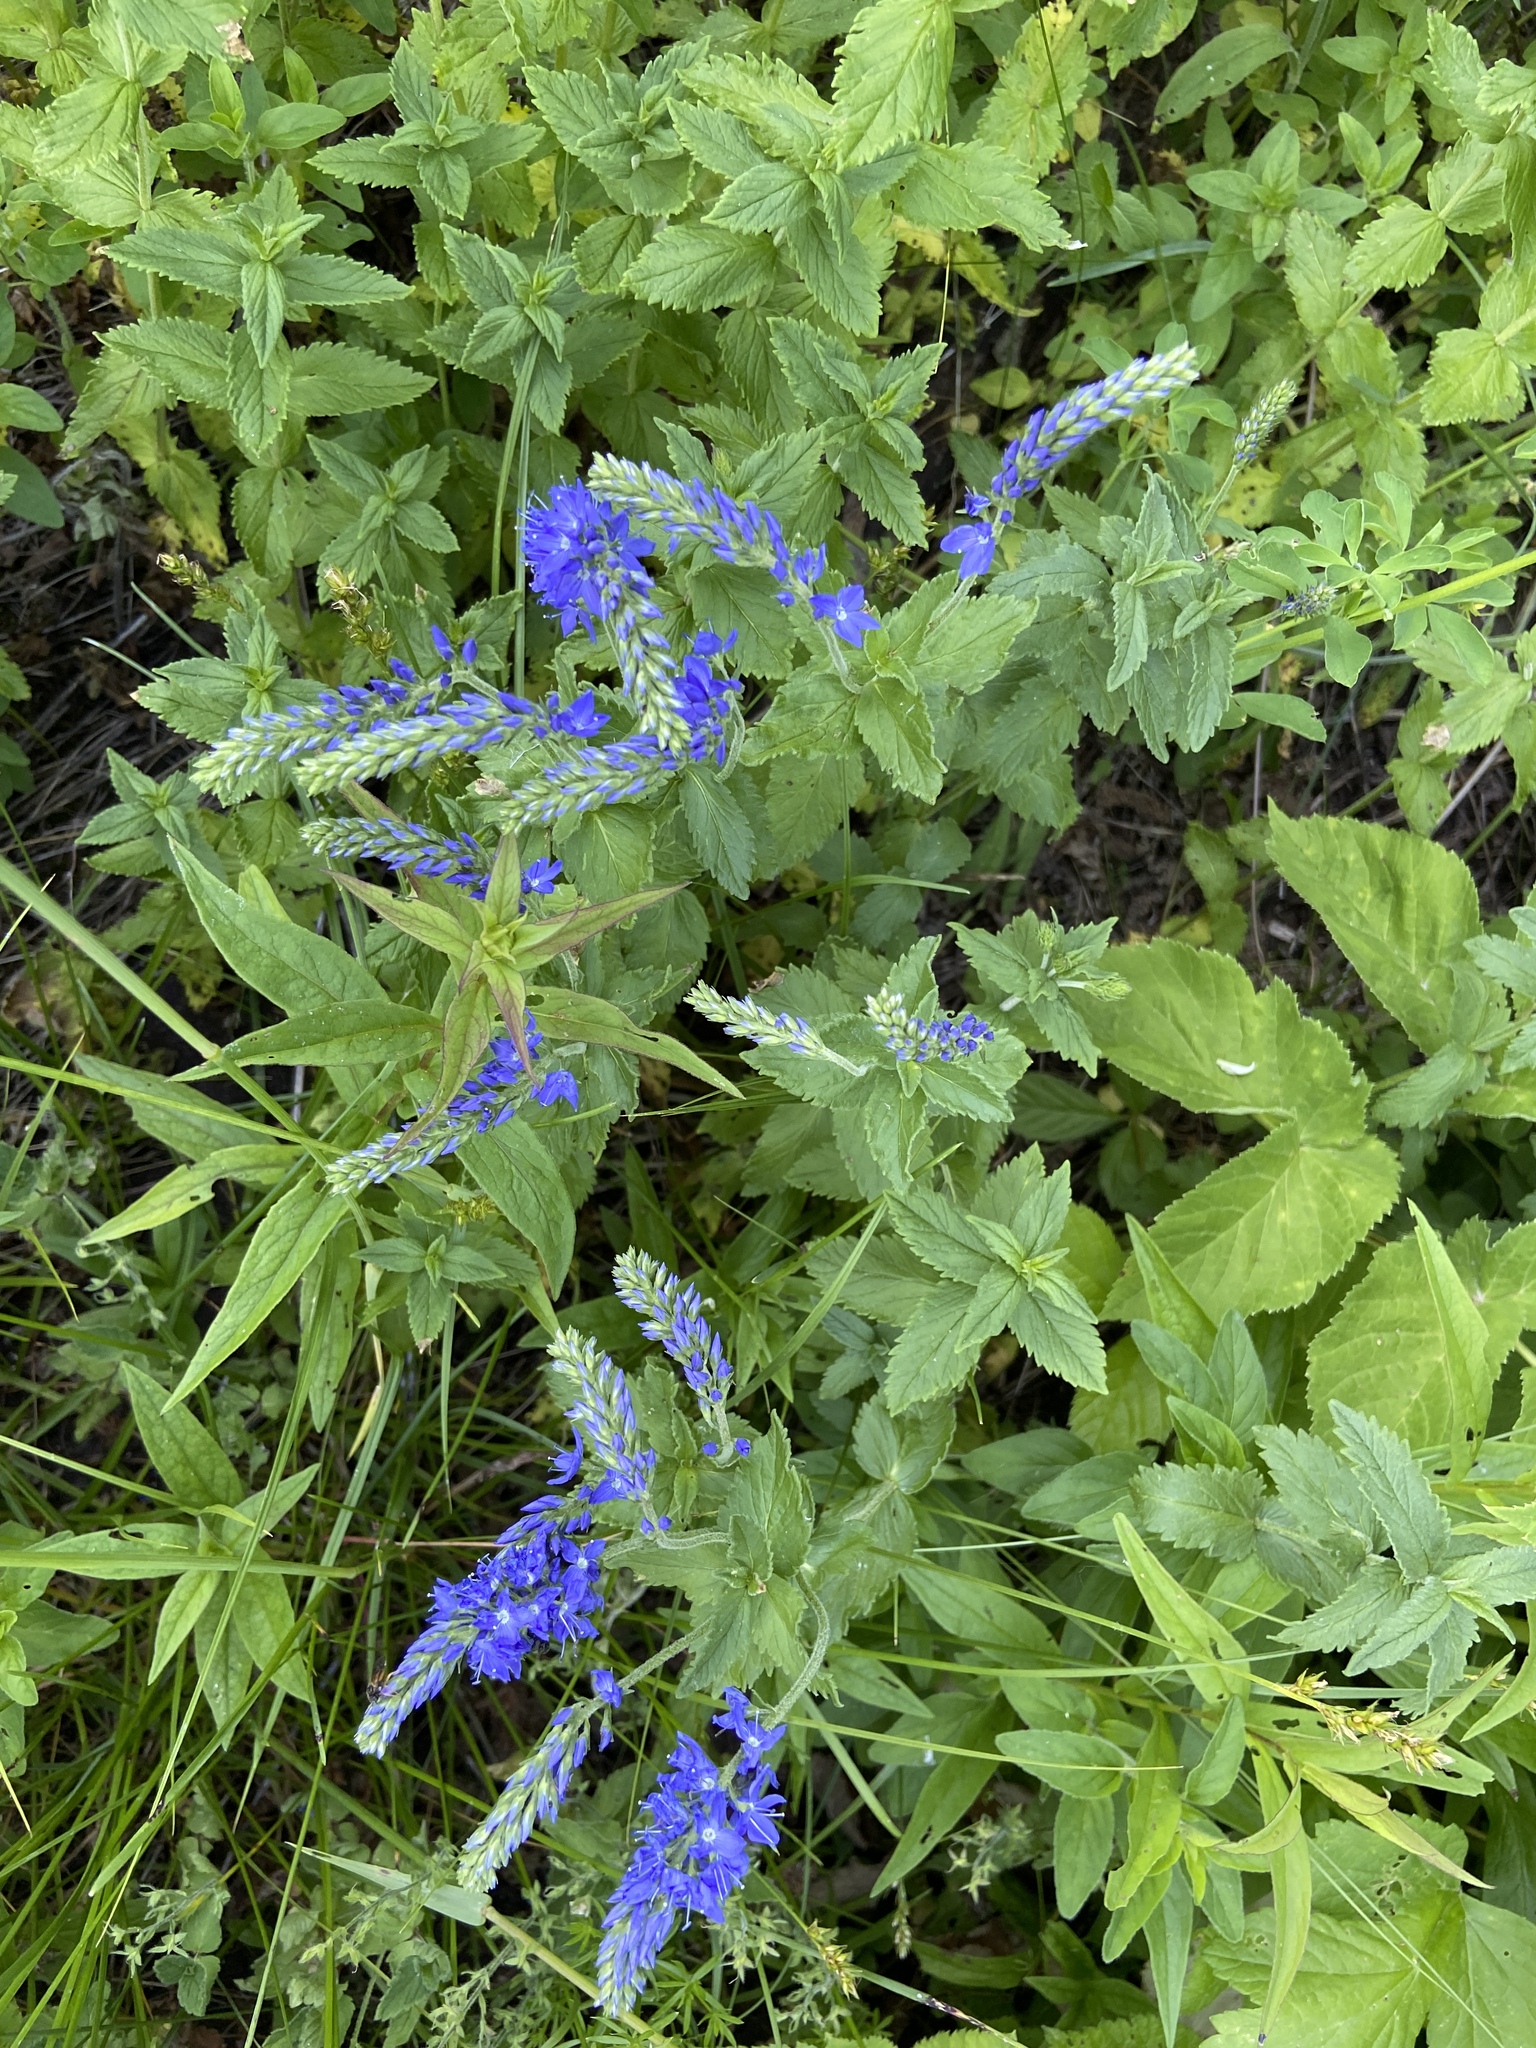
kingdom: Plantae
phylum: Tracheophyta
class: Magnoliopsida
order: Lamiales
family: Plantaginaceae
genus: Veronica
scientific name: Veronica teucrium
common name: Large speedwell
